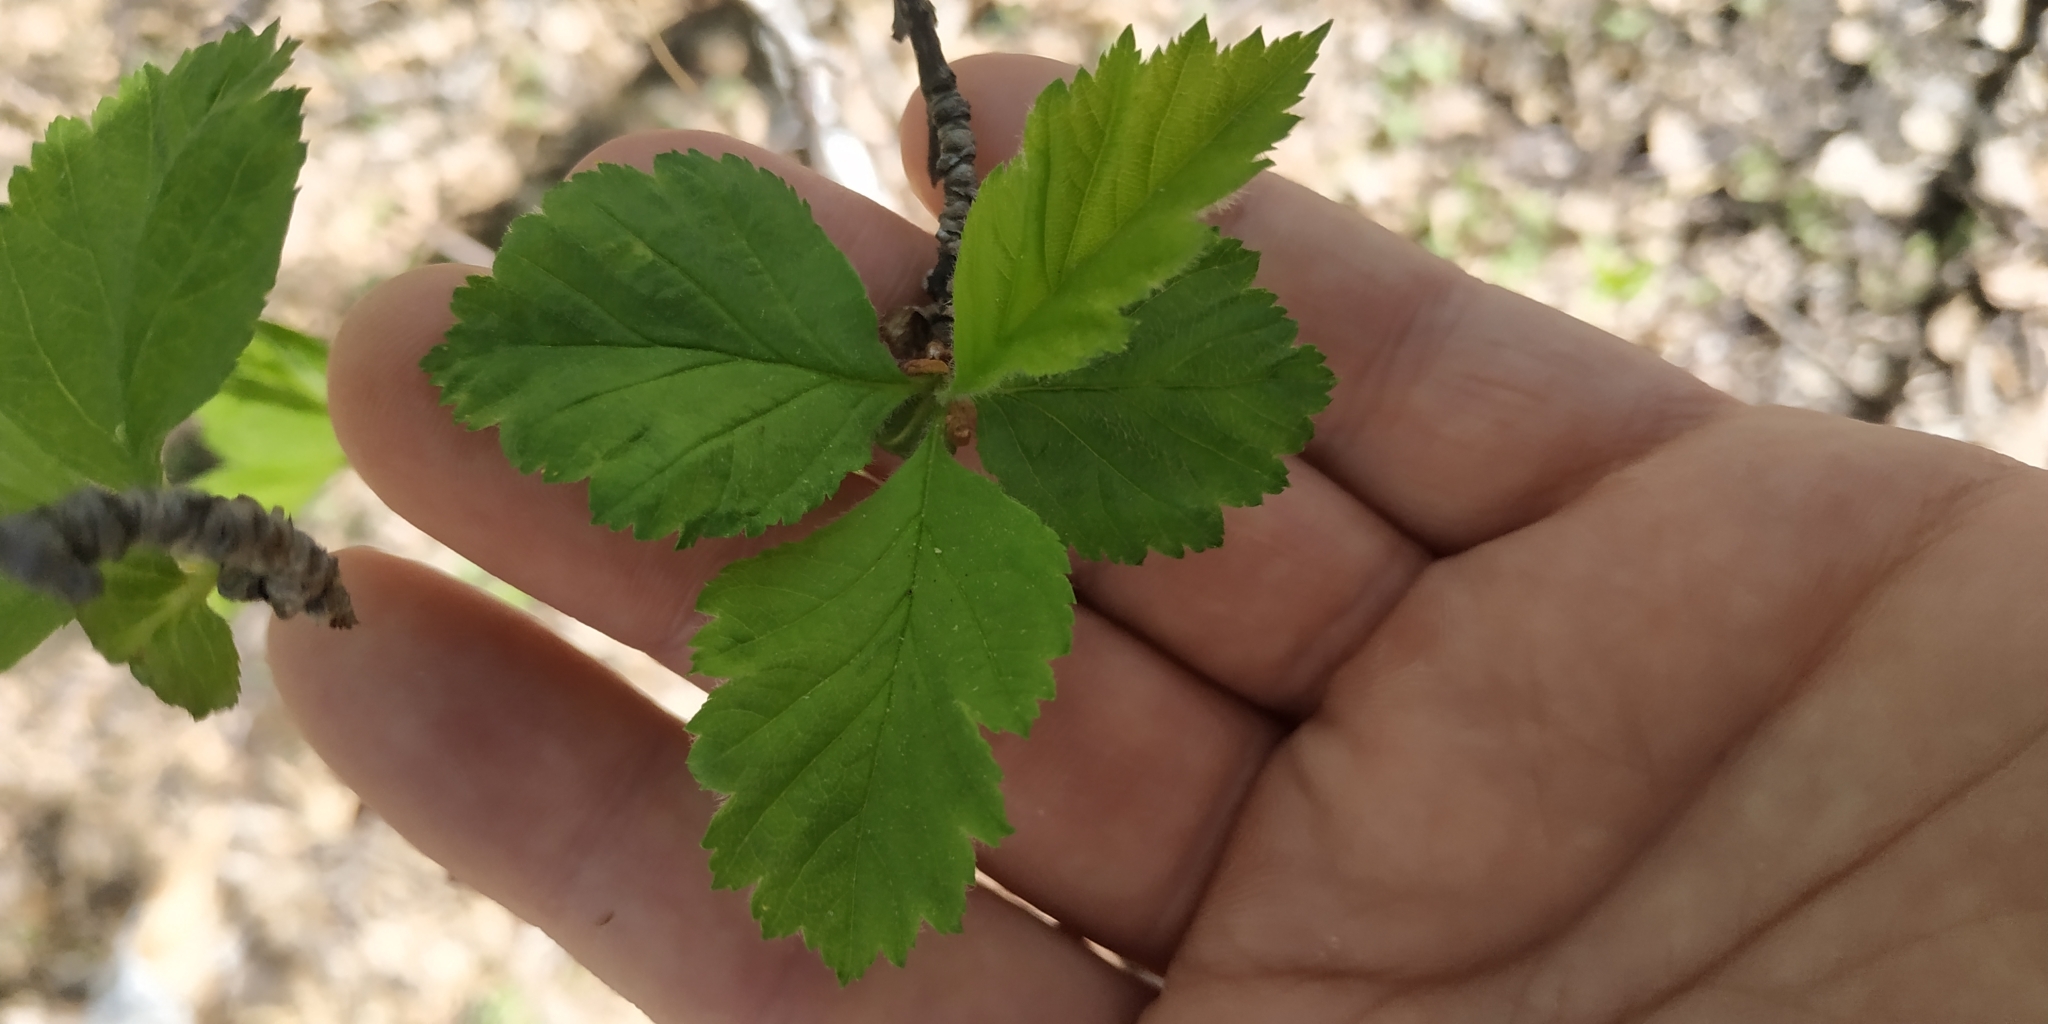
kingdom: Plantae
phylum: Tracheophyta
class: Magnoliopsida
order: Rosales
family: Rosaceae
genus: Crataegus
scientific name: Crataegus sanguinea
